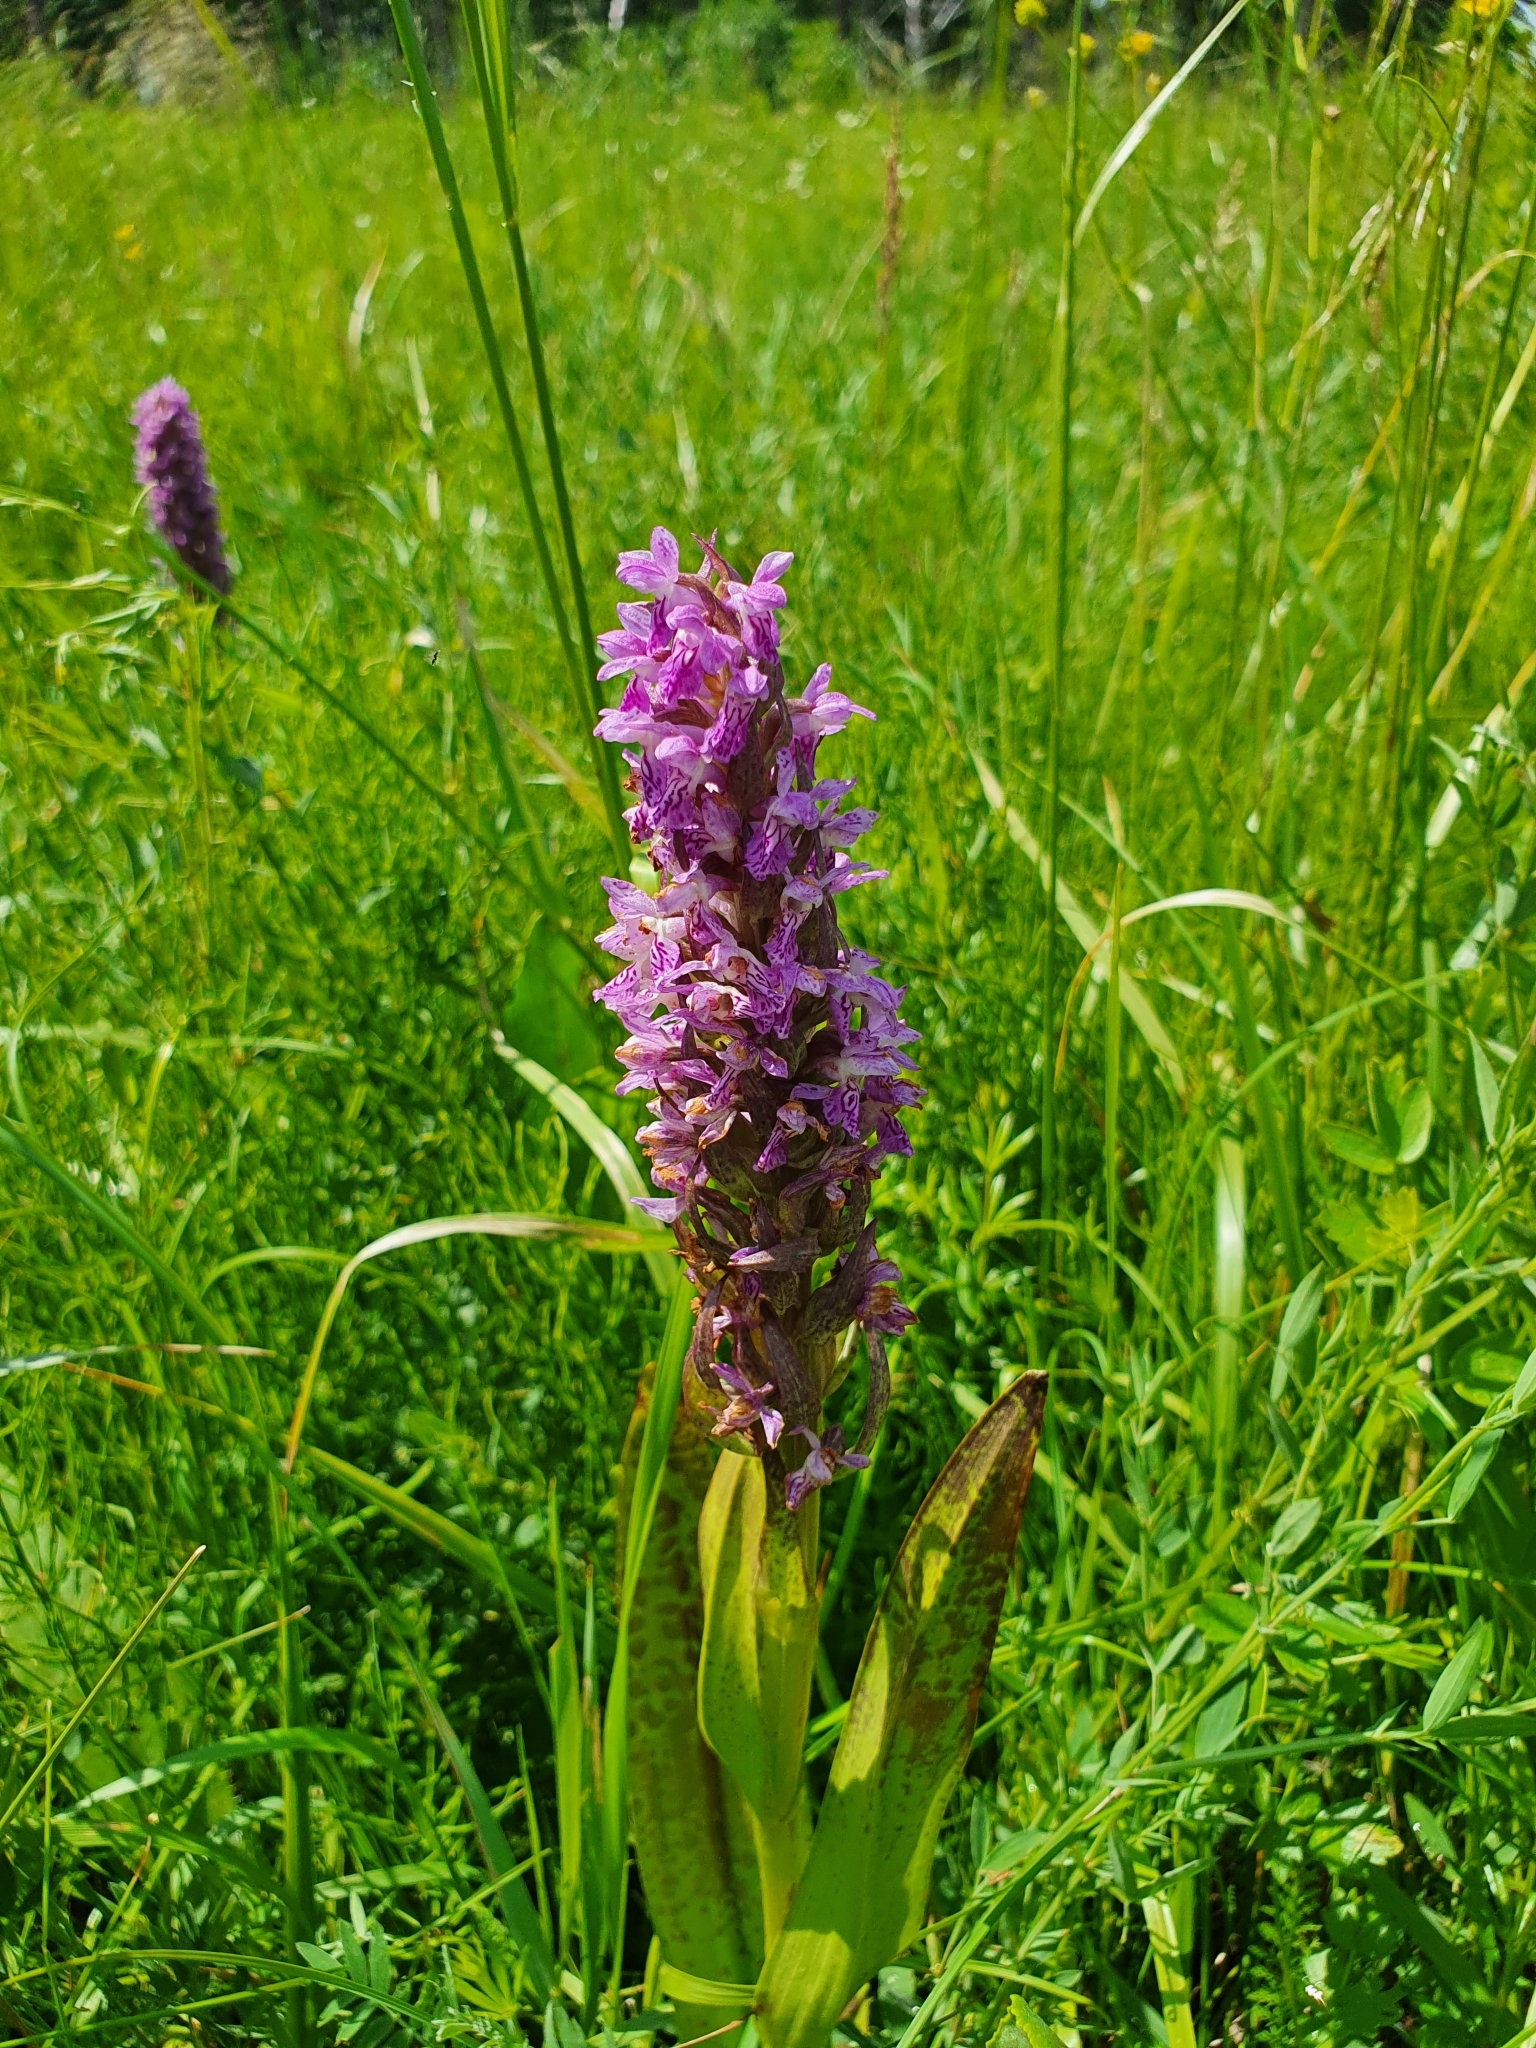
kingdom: Plantae
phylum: Tracheophyta
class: Liliopsida
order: Asparagales
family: Orchidaceae
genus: Dactylorhiza
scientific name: Dactylorhiza incarnata
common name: Early marsh-orchid
